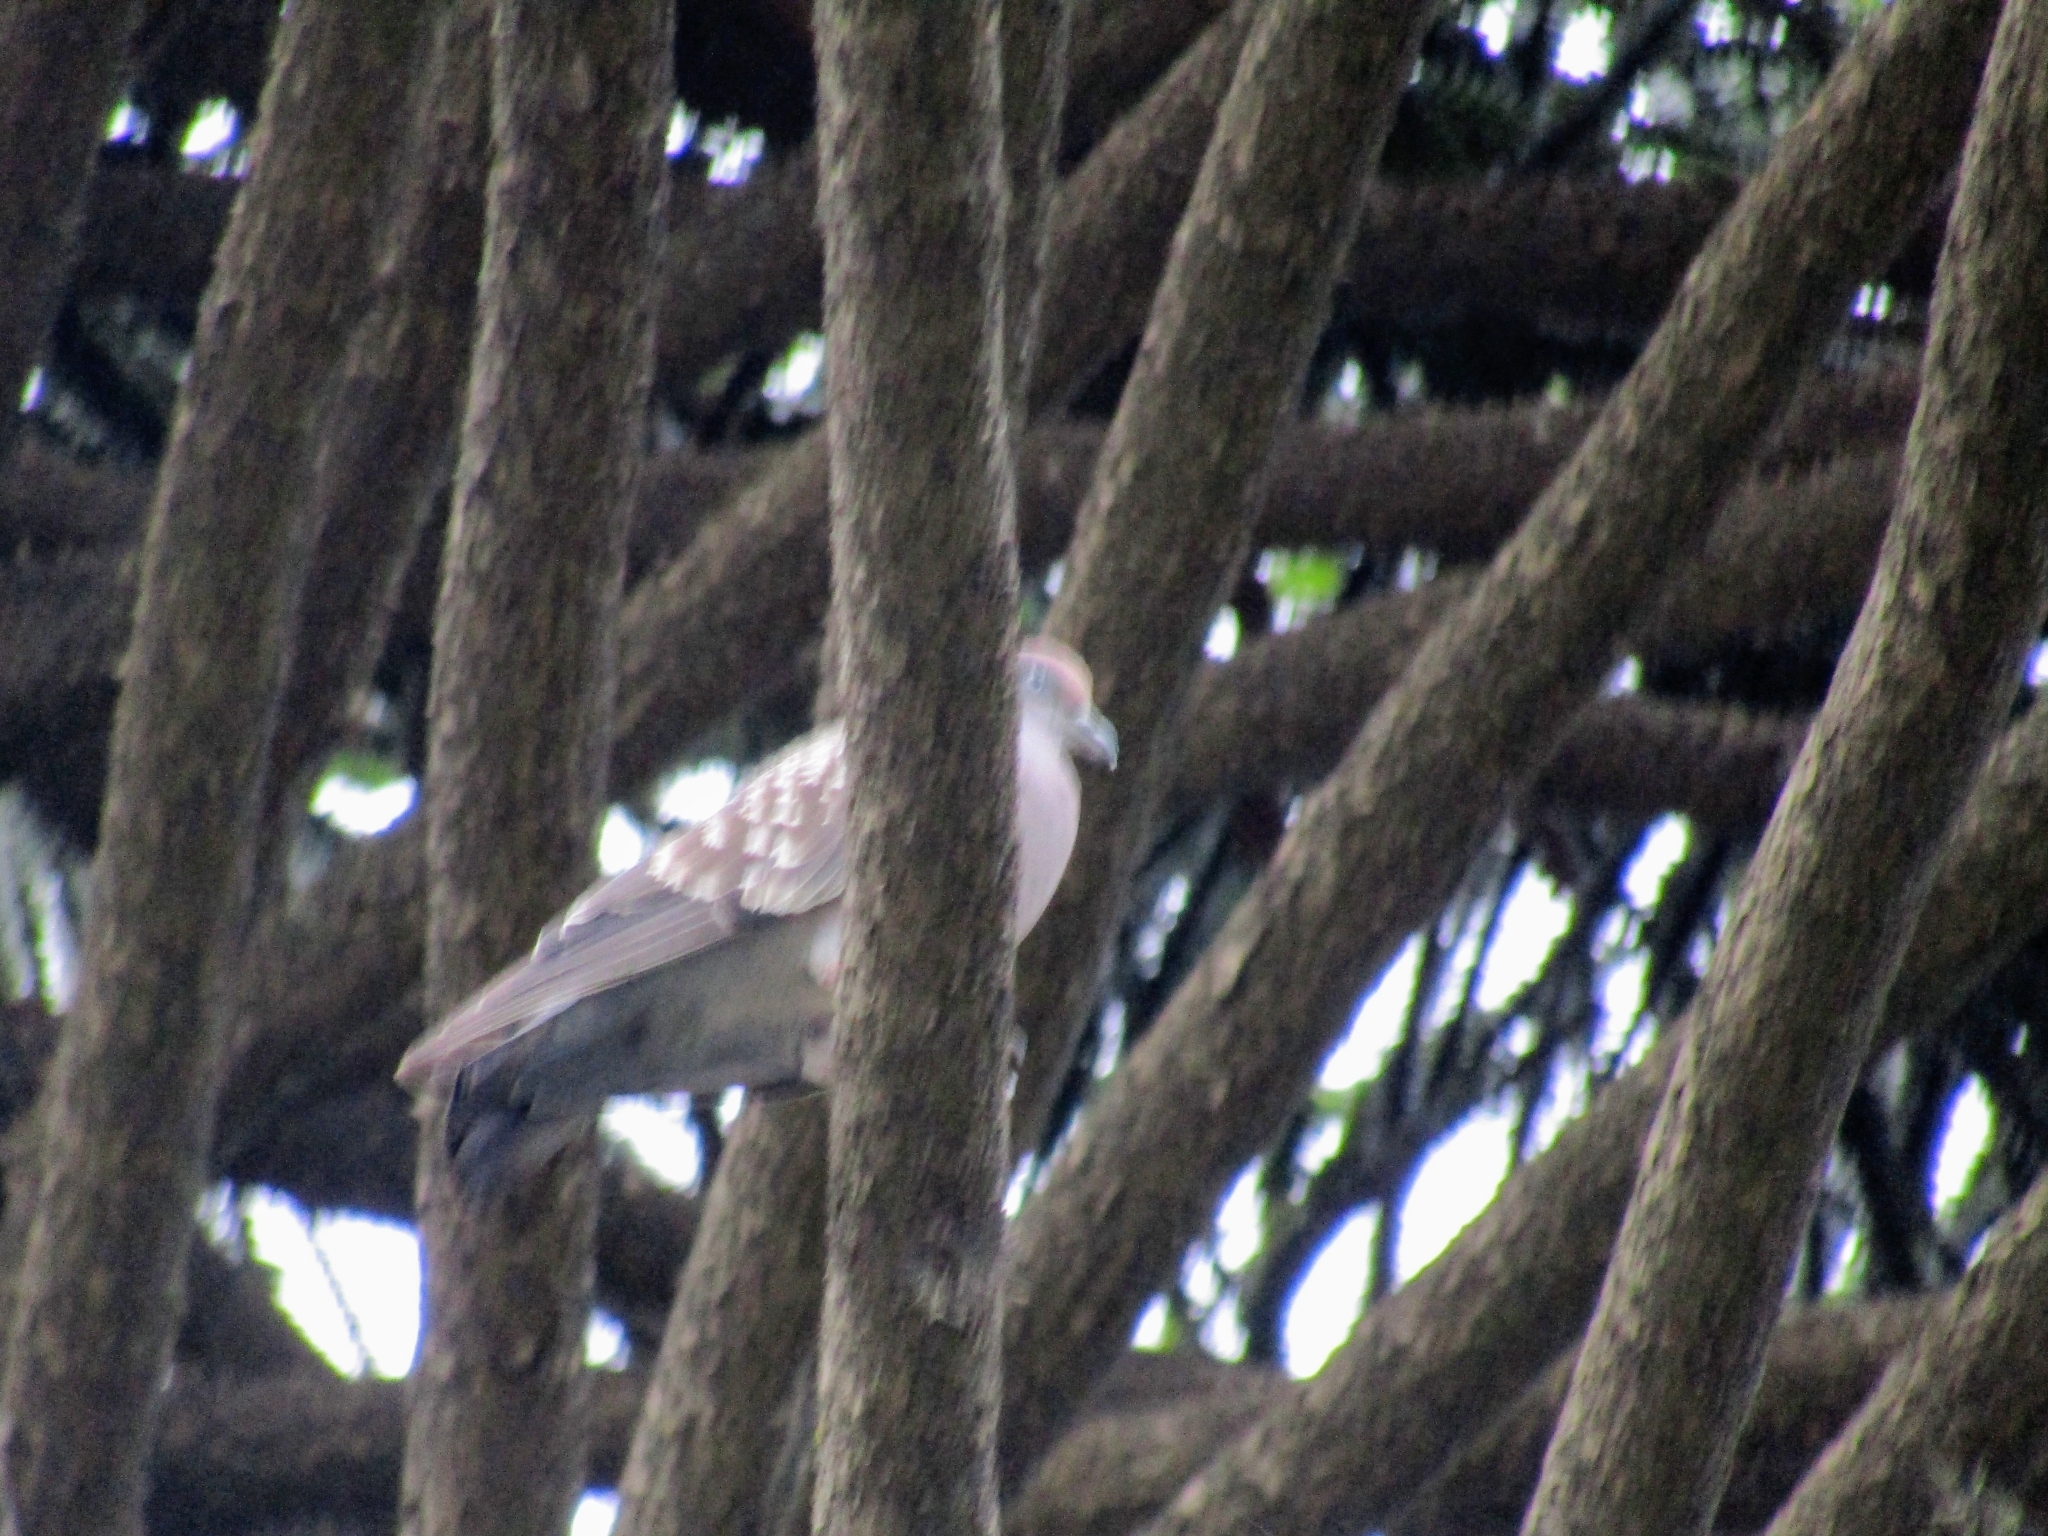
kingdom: Animalia
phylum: Chordata
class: Aves
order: Columbiformes
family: Columbidae
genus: Patagioenas
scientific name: Patagioenas maculosa
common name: Spot-winged pigeon
